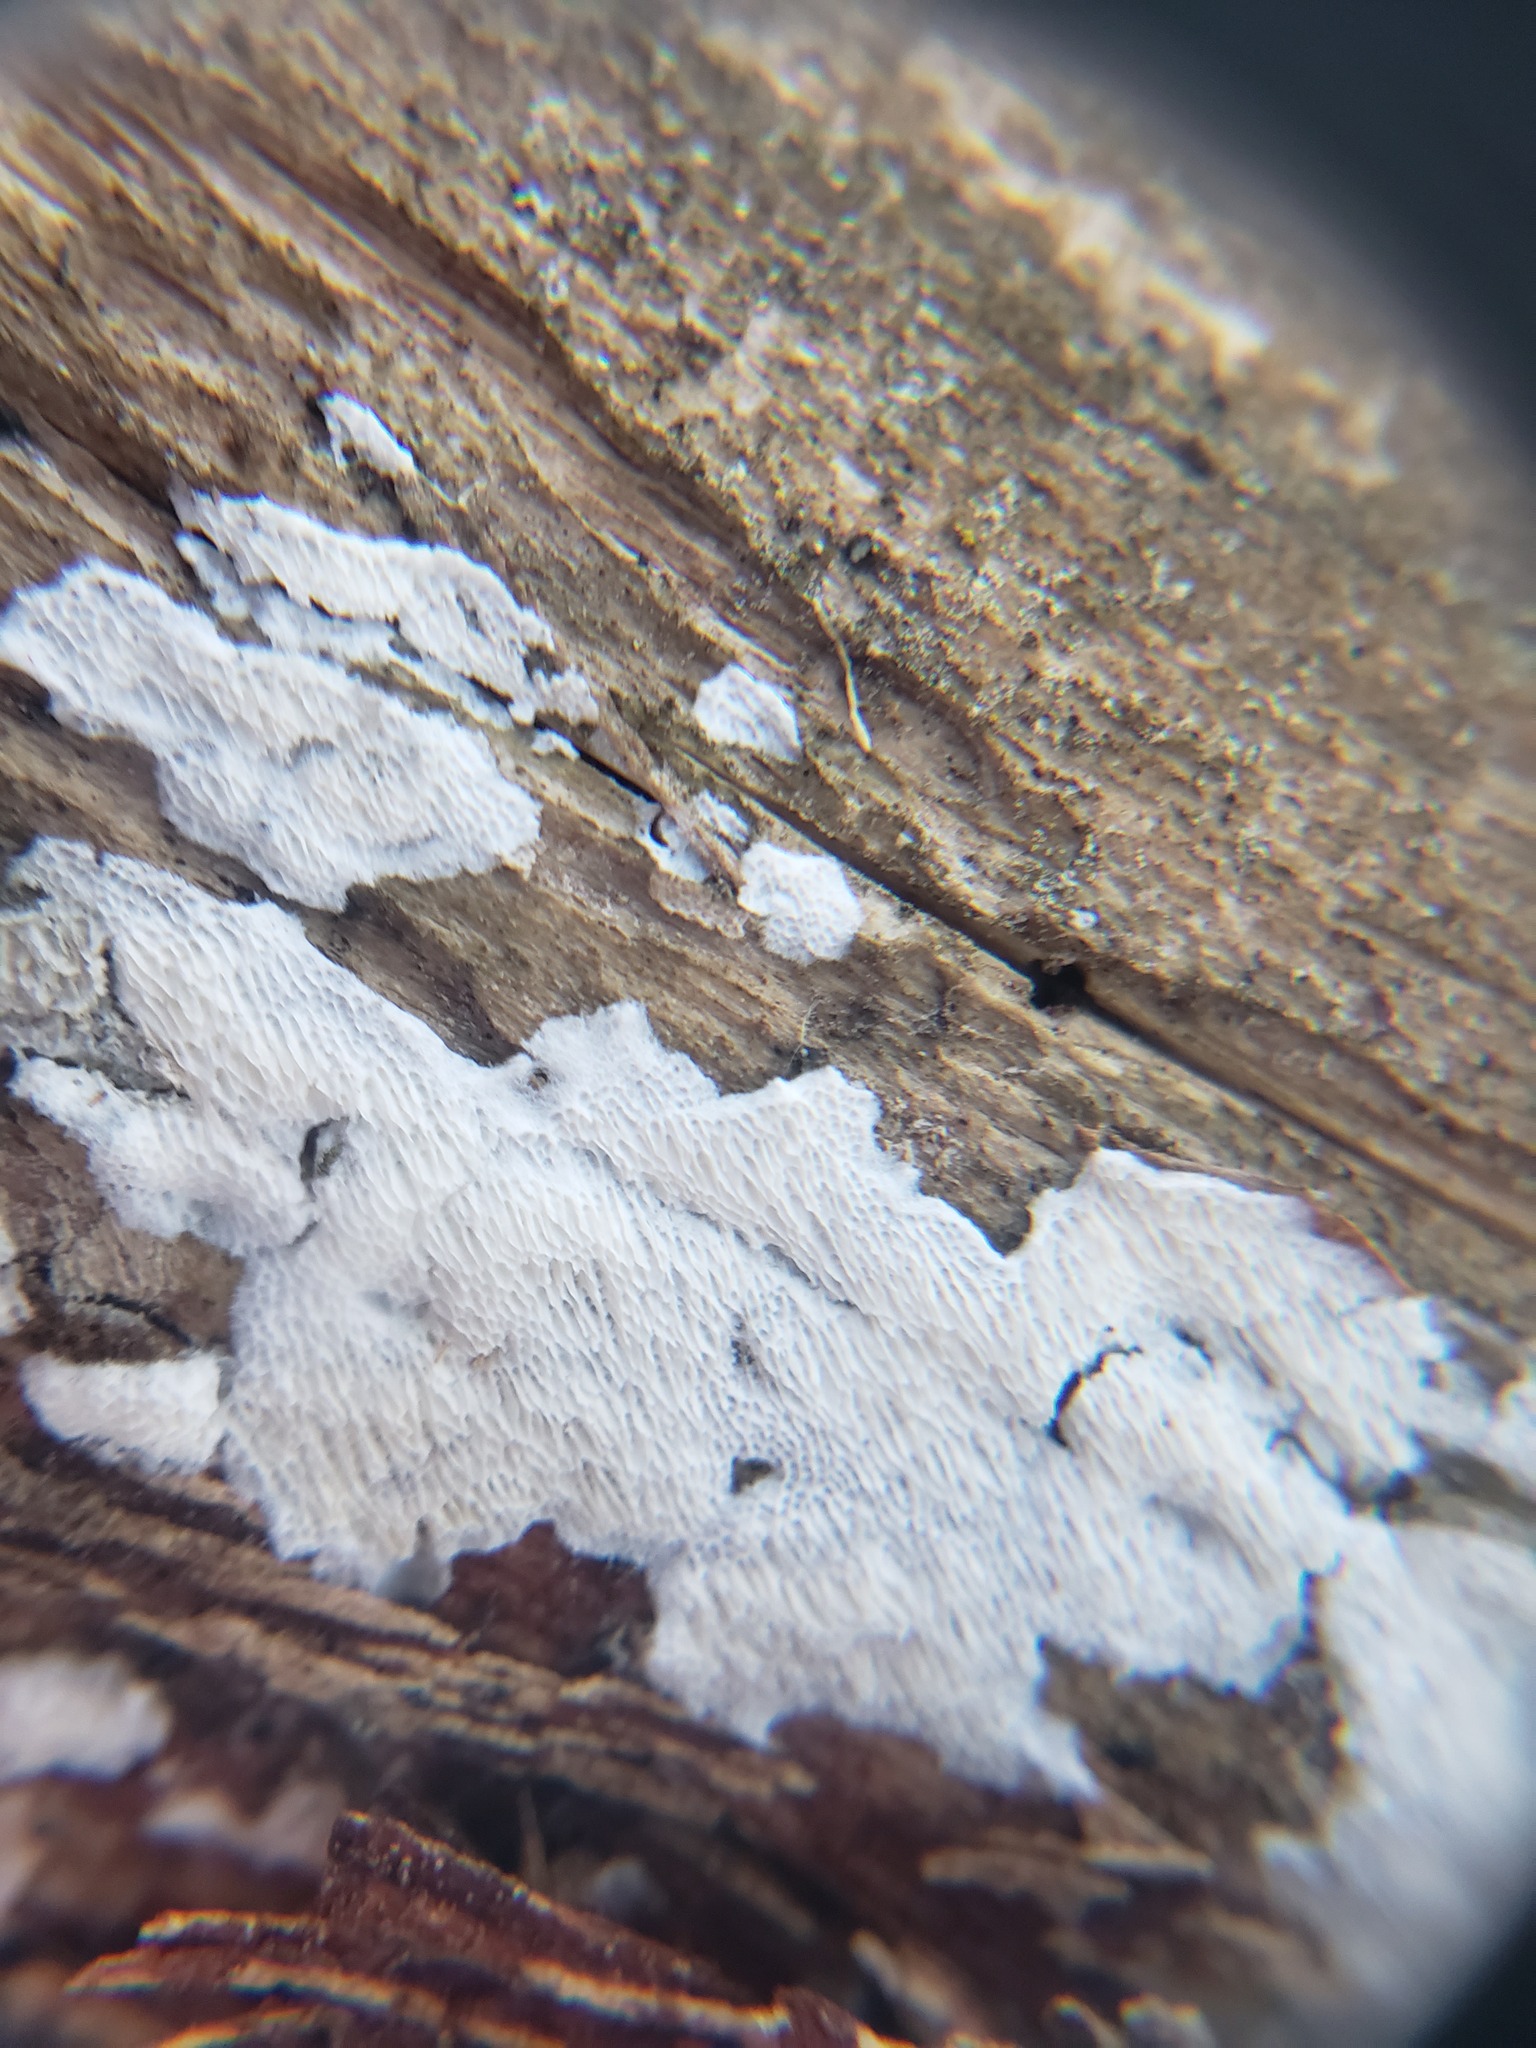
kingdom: Fungi
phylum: Basidiomycota
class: Agaricomycetes
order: Polyporales
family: Irpicaceae
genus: Irpex
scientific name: Irpex lacteus
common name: Milk-white toothed polypore
